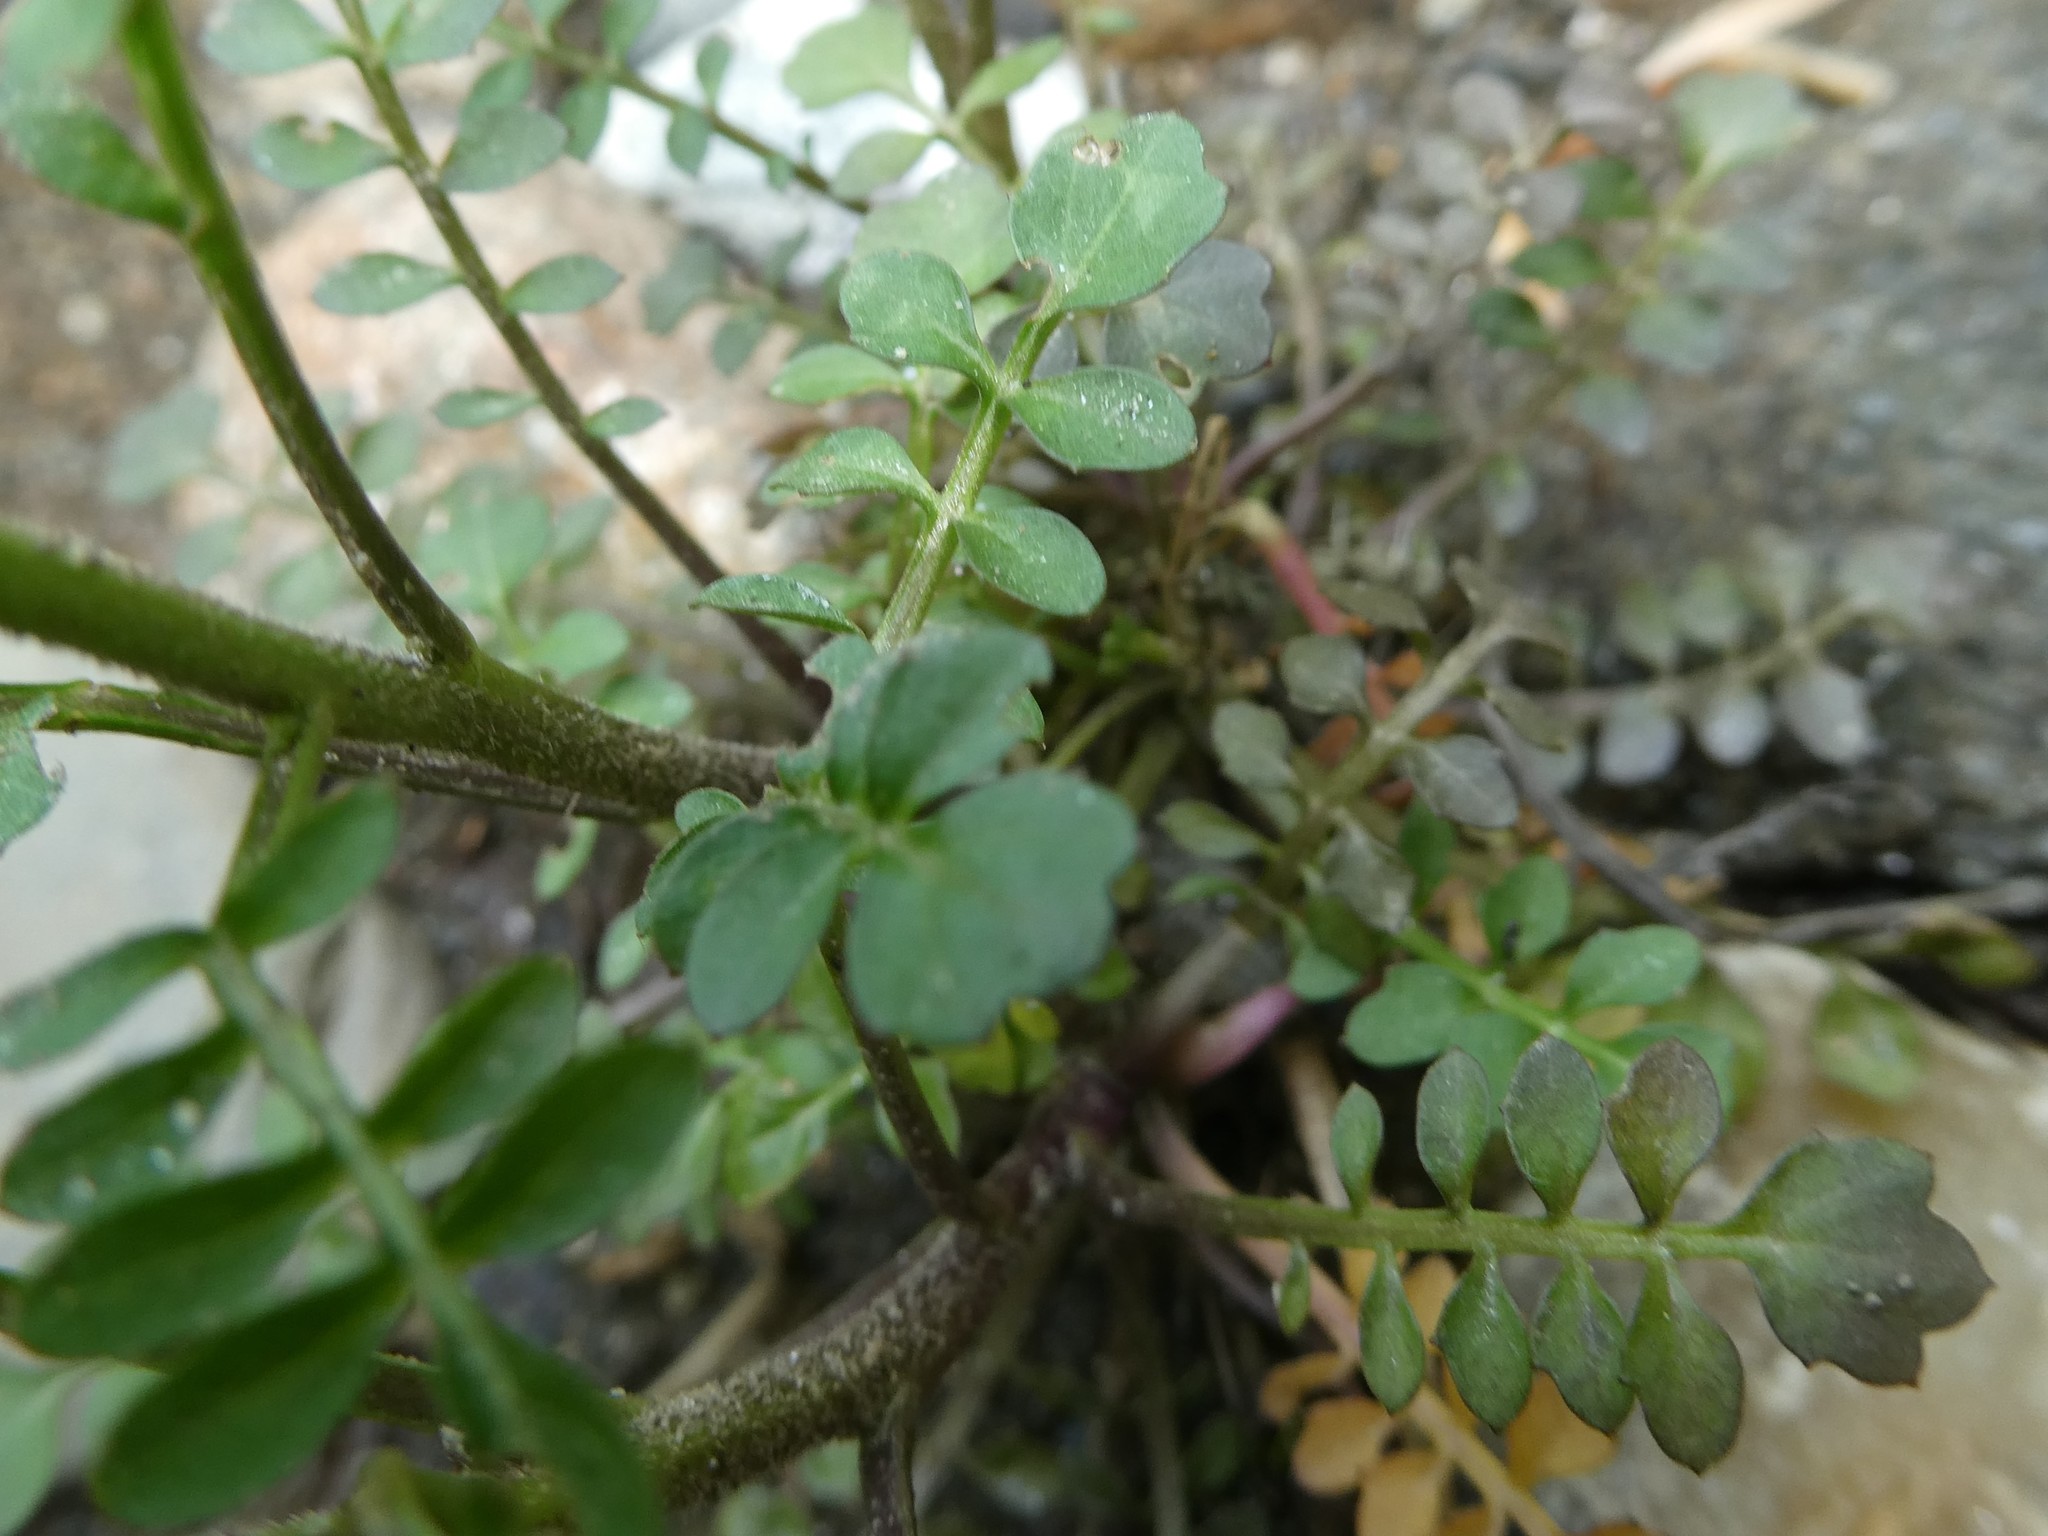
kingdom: Plantae
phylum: Tracheophyta
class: Magnoliopsida
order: Brassicales
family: Brassicaceae
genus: Cardamine
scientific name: Cardamine pensylvanica
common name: Pennsylvania bittercress
